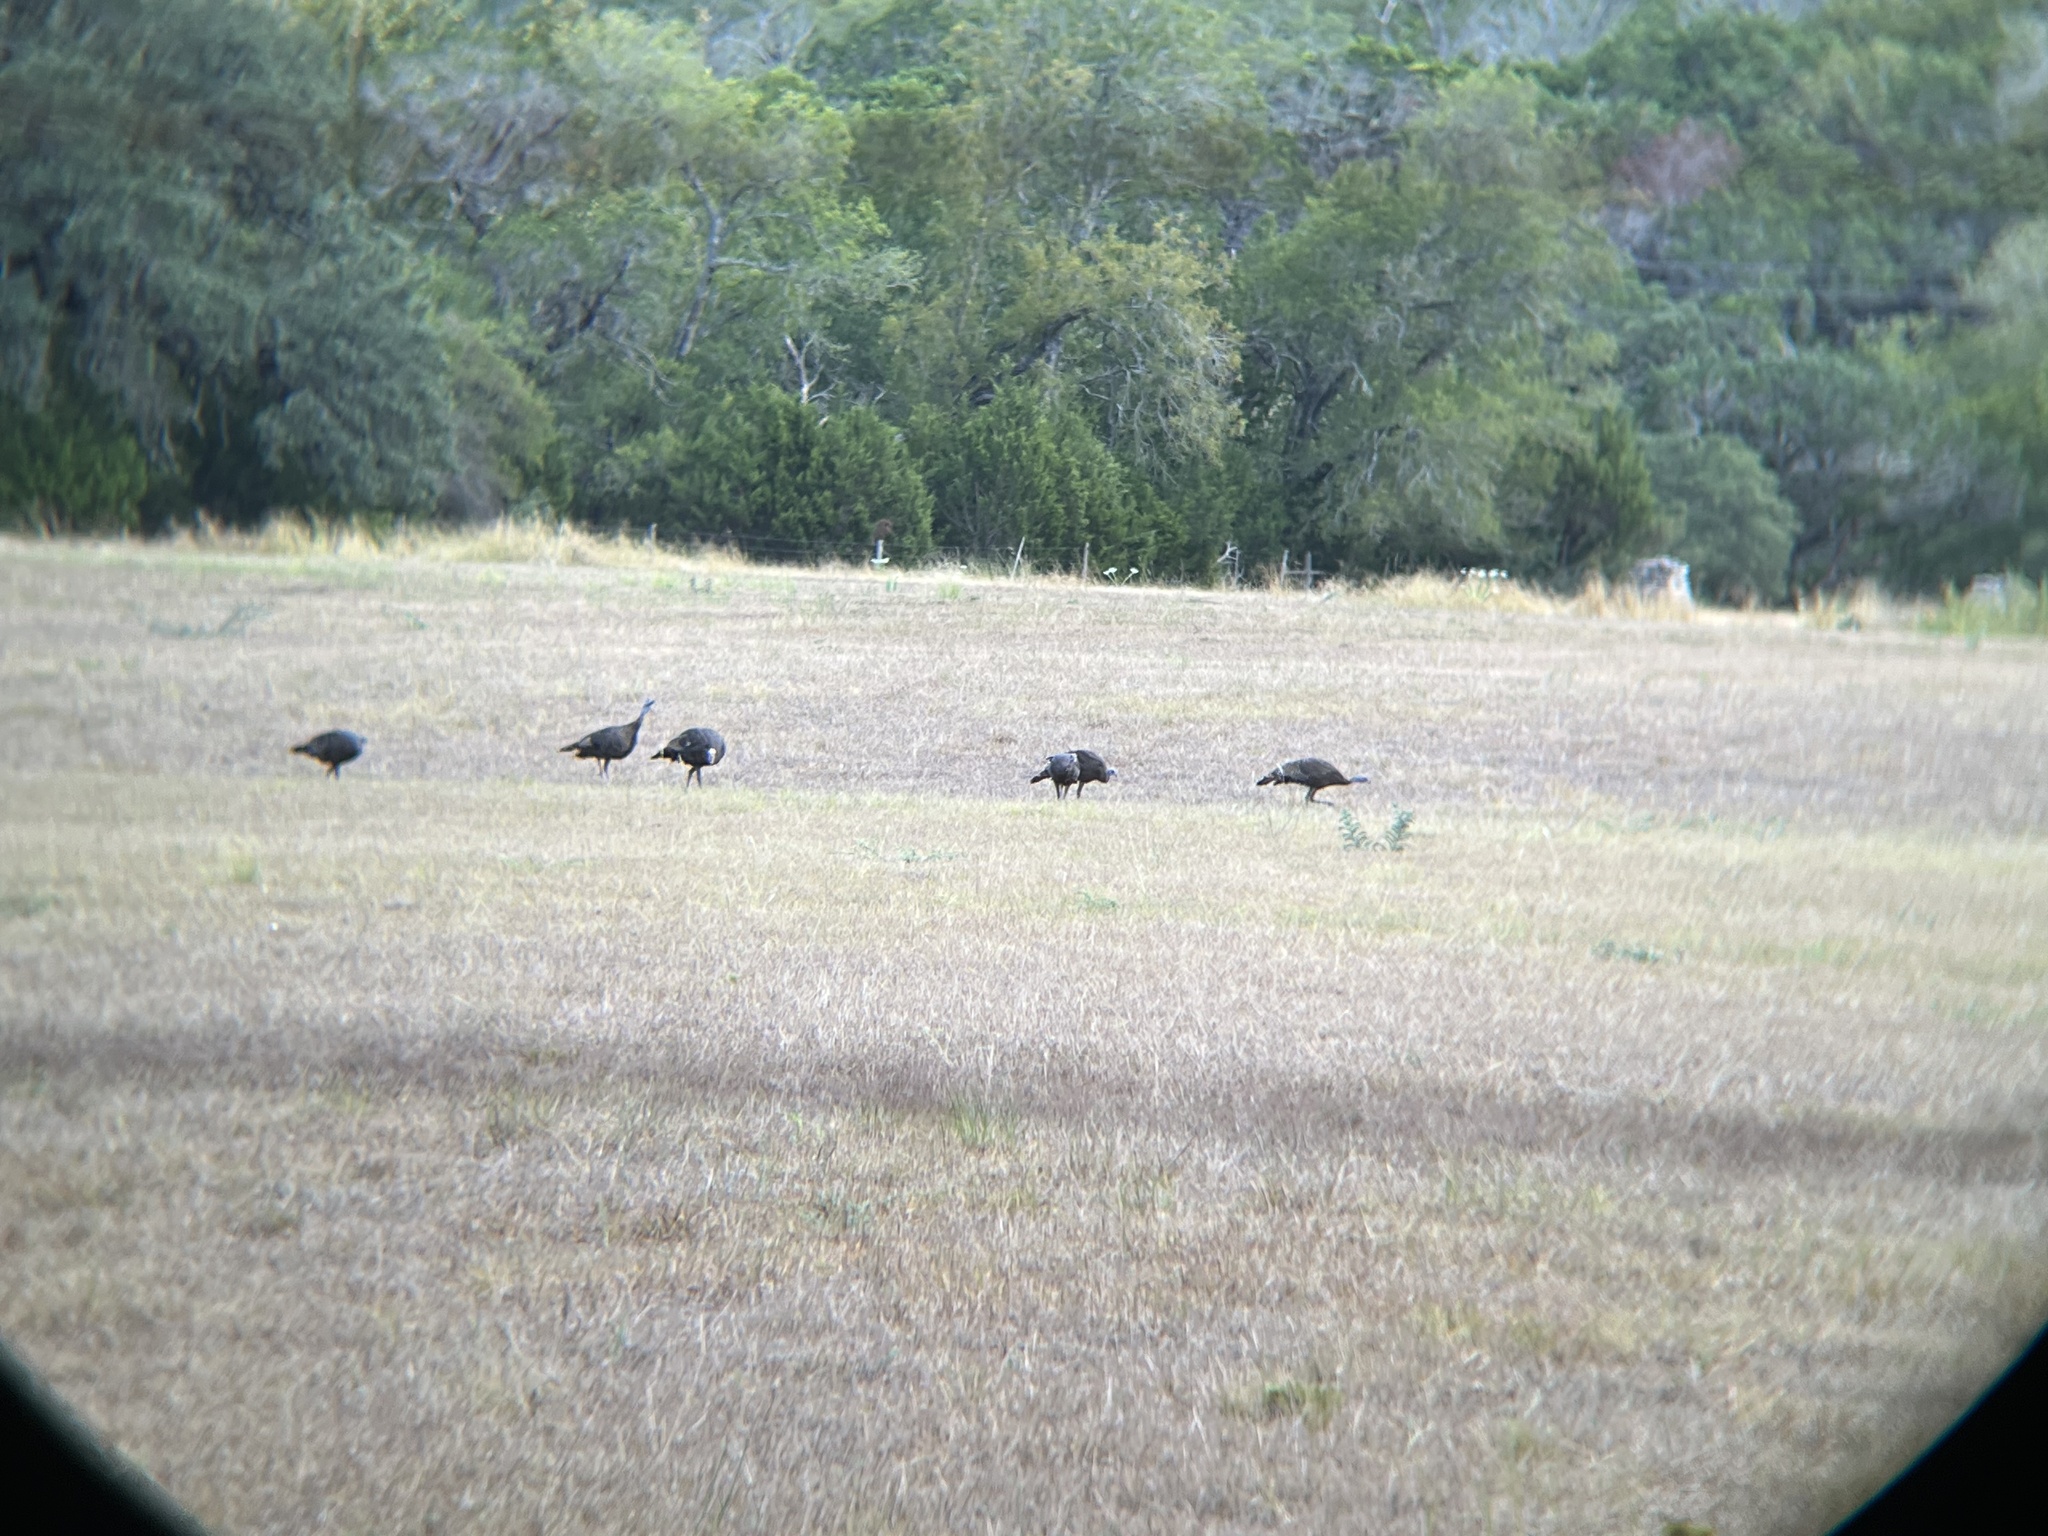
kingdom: Animalia
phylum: Chordata
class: Aves
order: Galliformes
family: Phasianidae
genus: Meleagris
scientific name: Meleagris gallopavo
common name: Wild turkey
